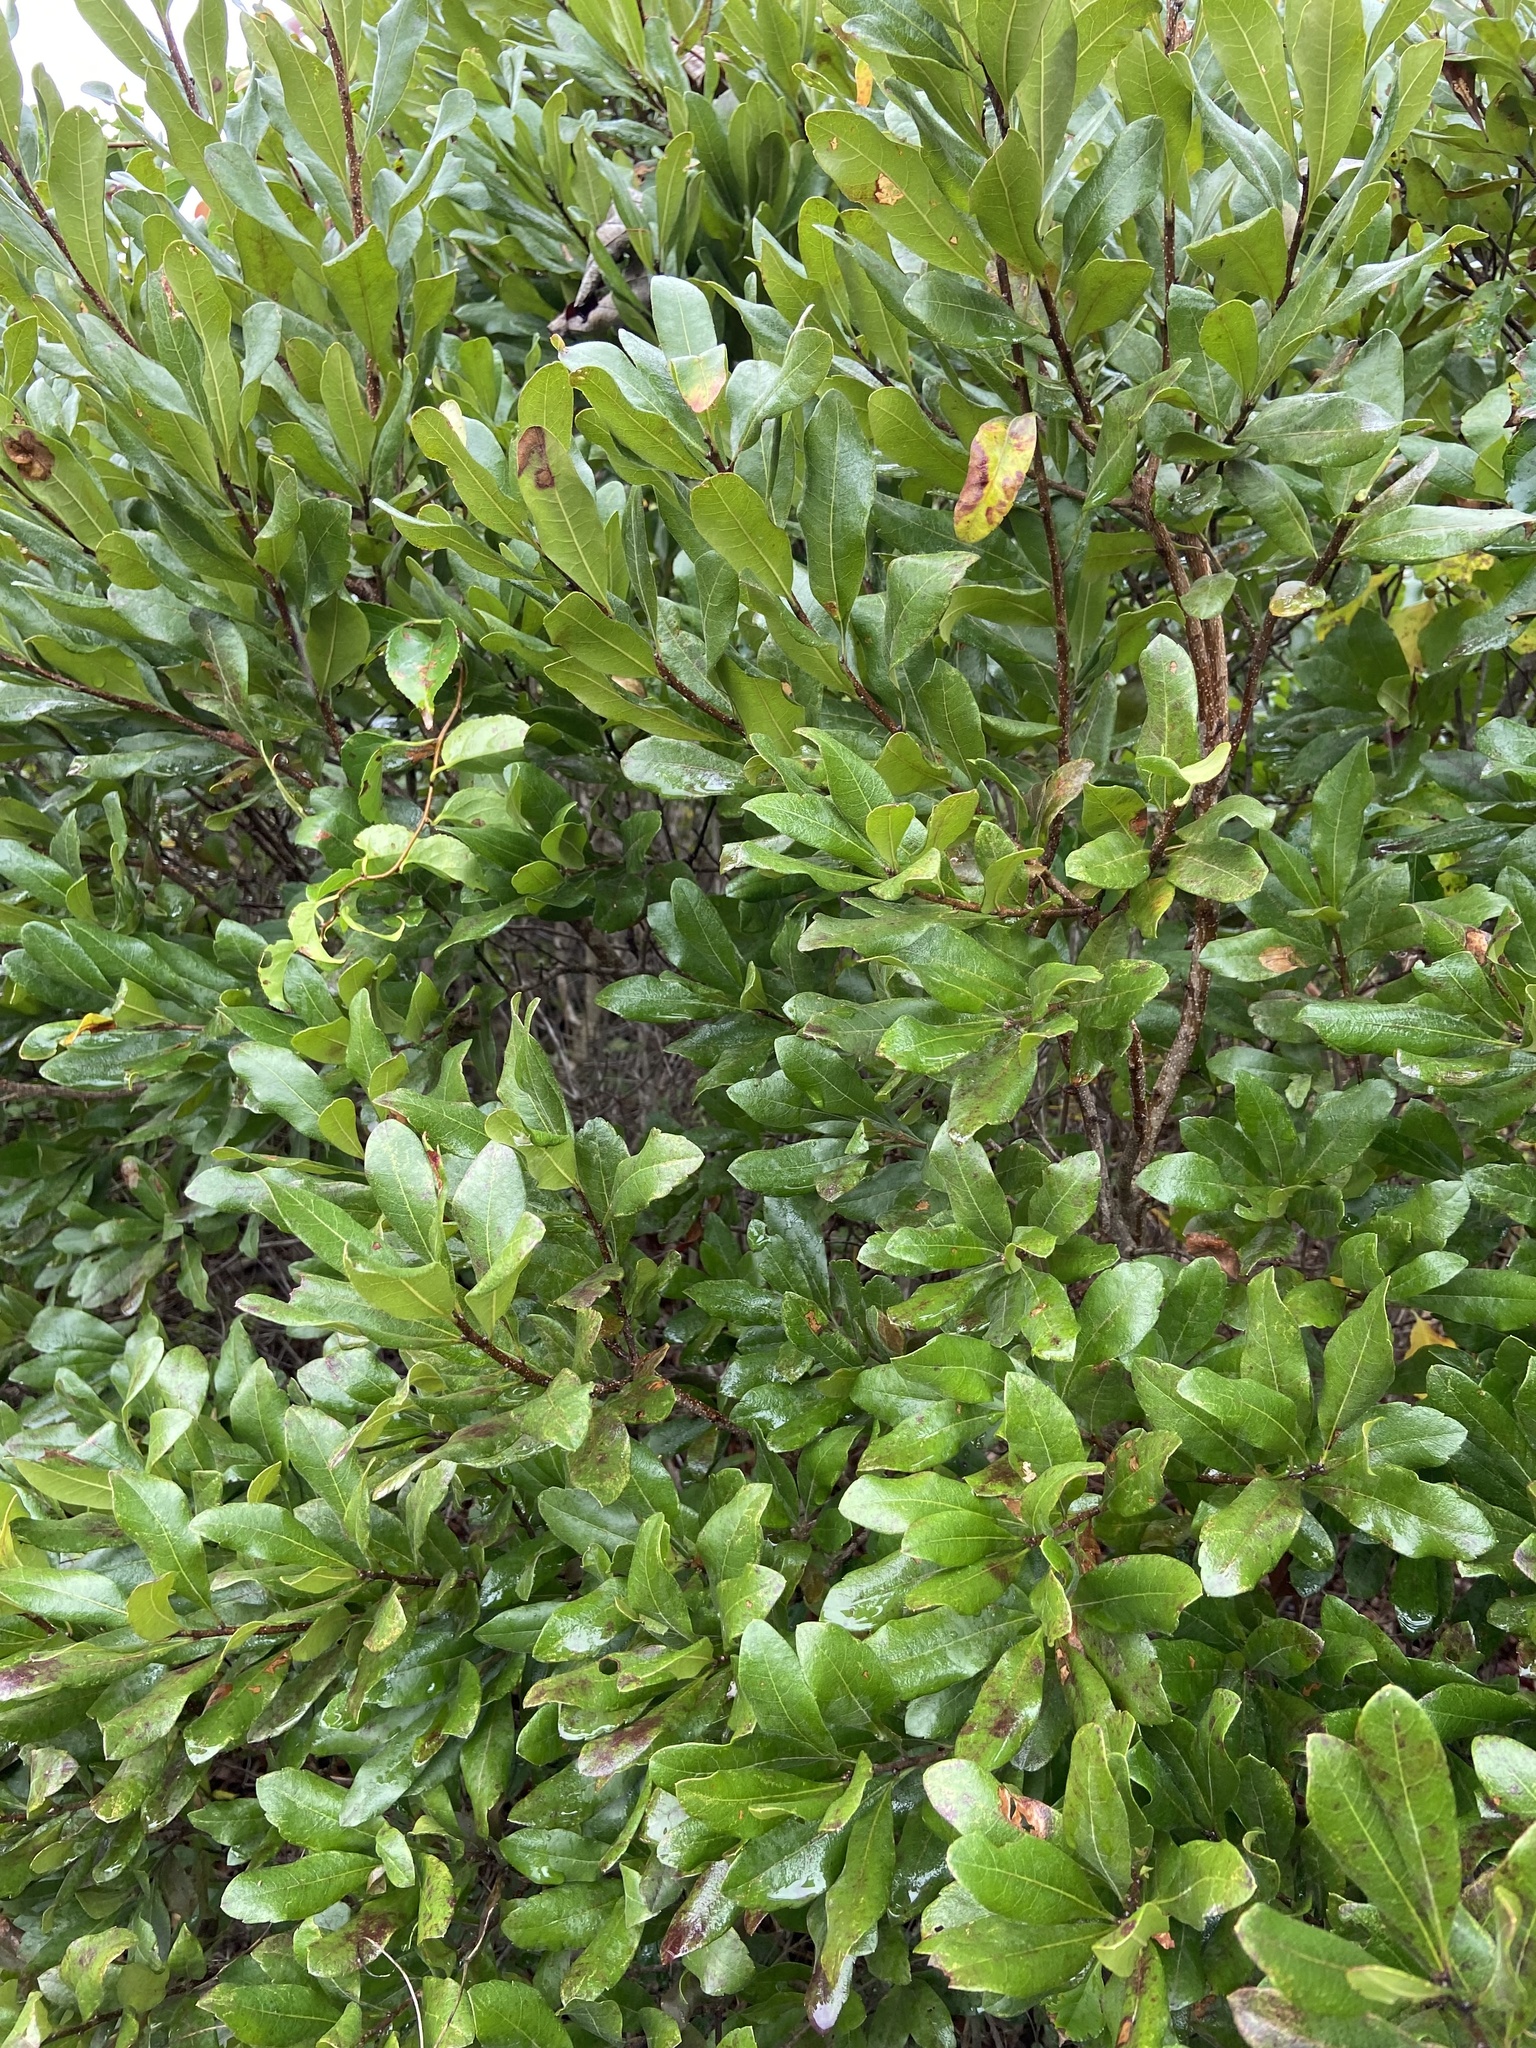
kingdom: Plantae
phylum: Tracheophyta
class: Magnoliopsida
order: Fagales
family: Myricaceae
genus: Morella
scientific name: Morella pensylvanica
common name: Northern bayberry
